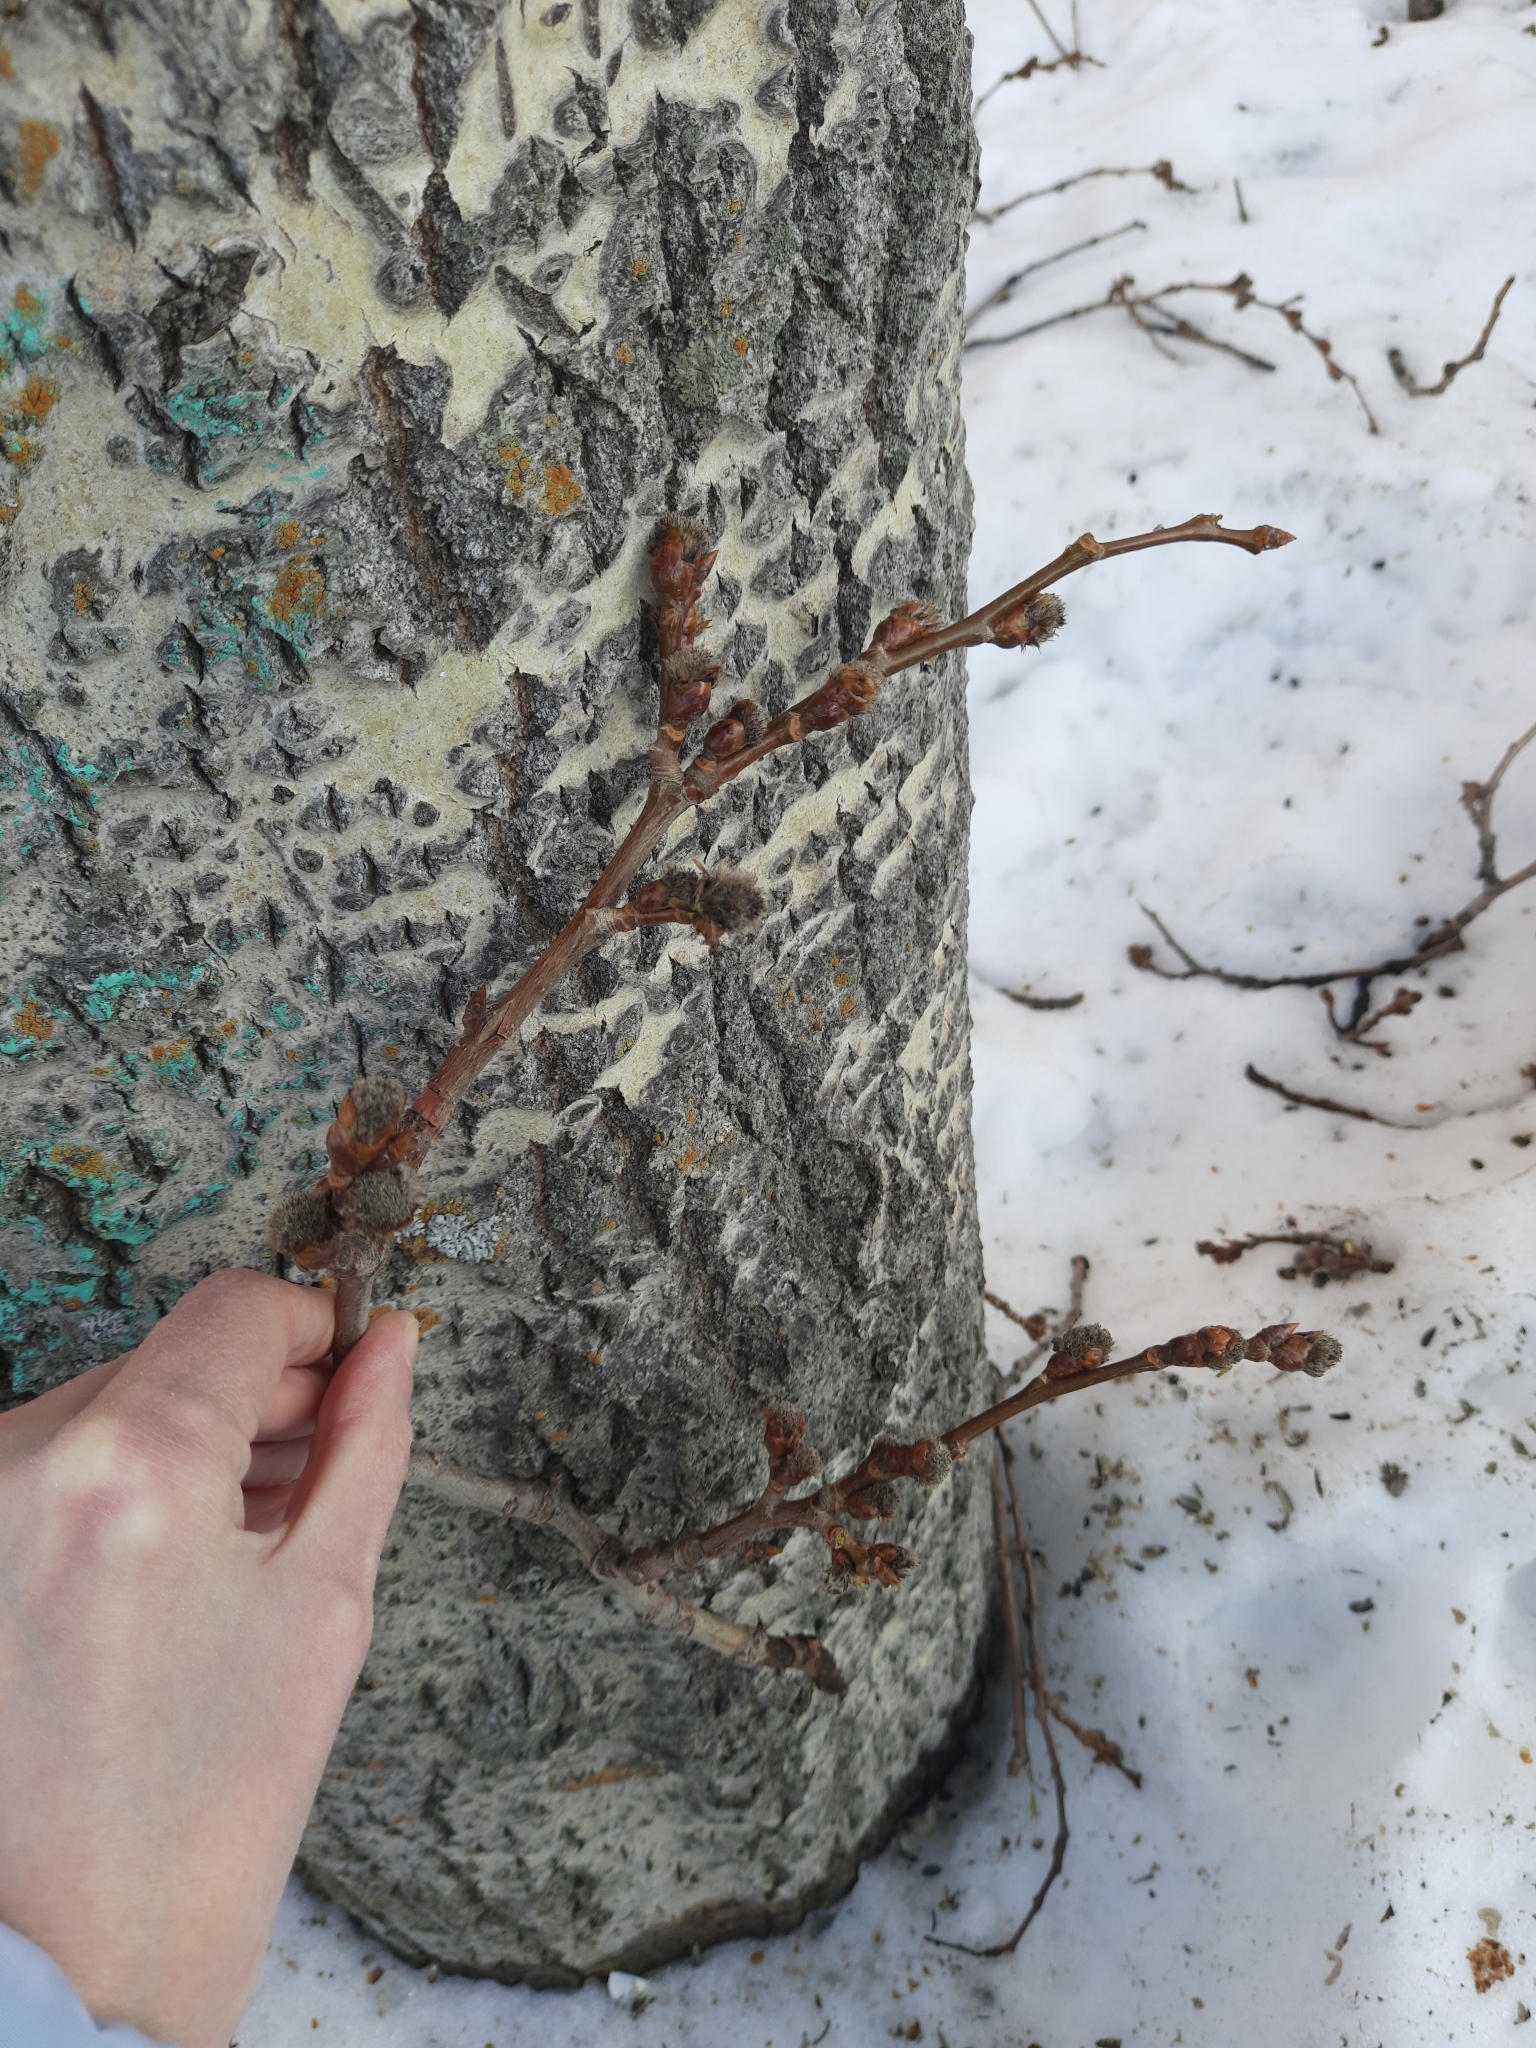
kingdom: Plantae
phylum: Tracheophyta
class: Magnoliopsida
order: Malpighiales
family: Salicaceae
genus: Populus
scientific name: Populus tremula
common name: European aspen
